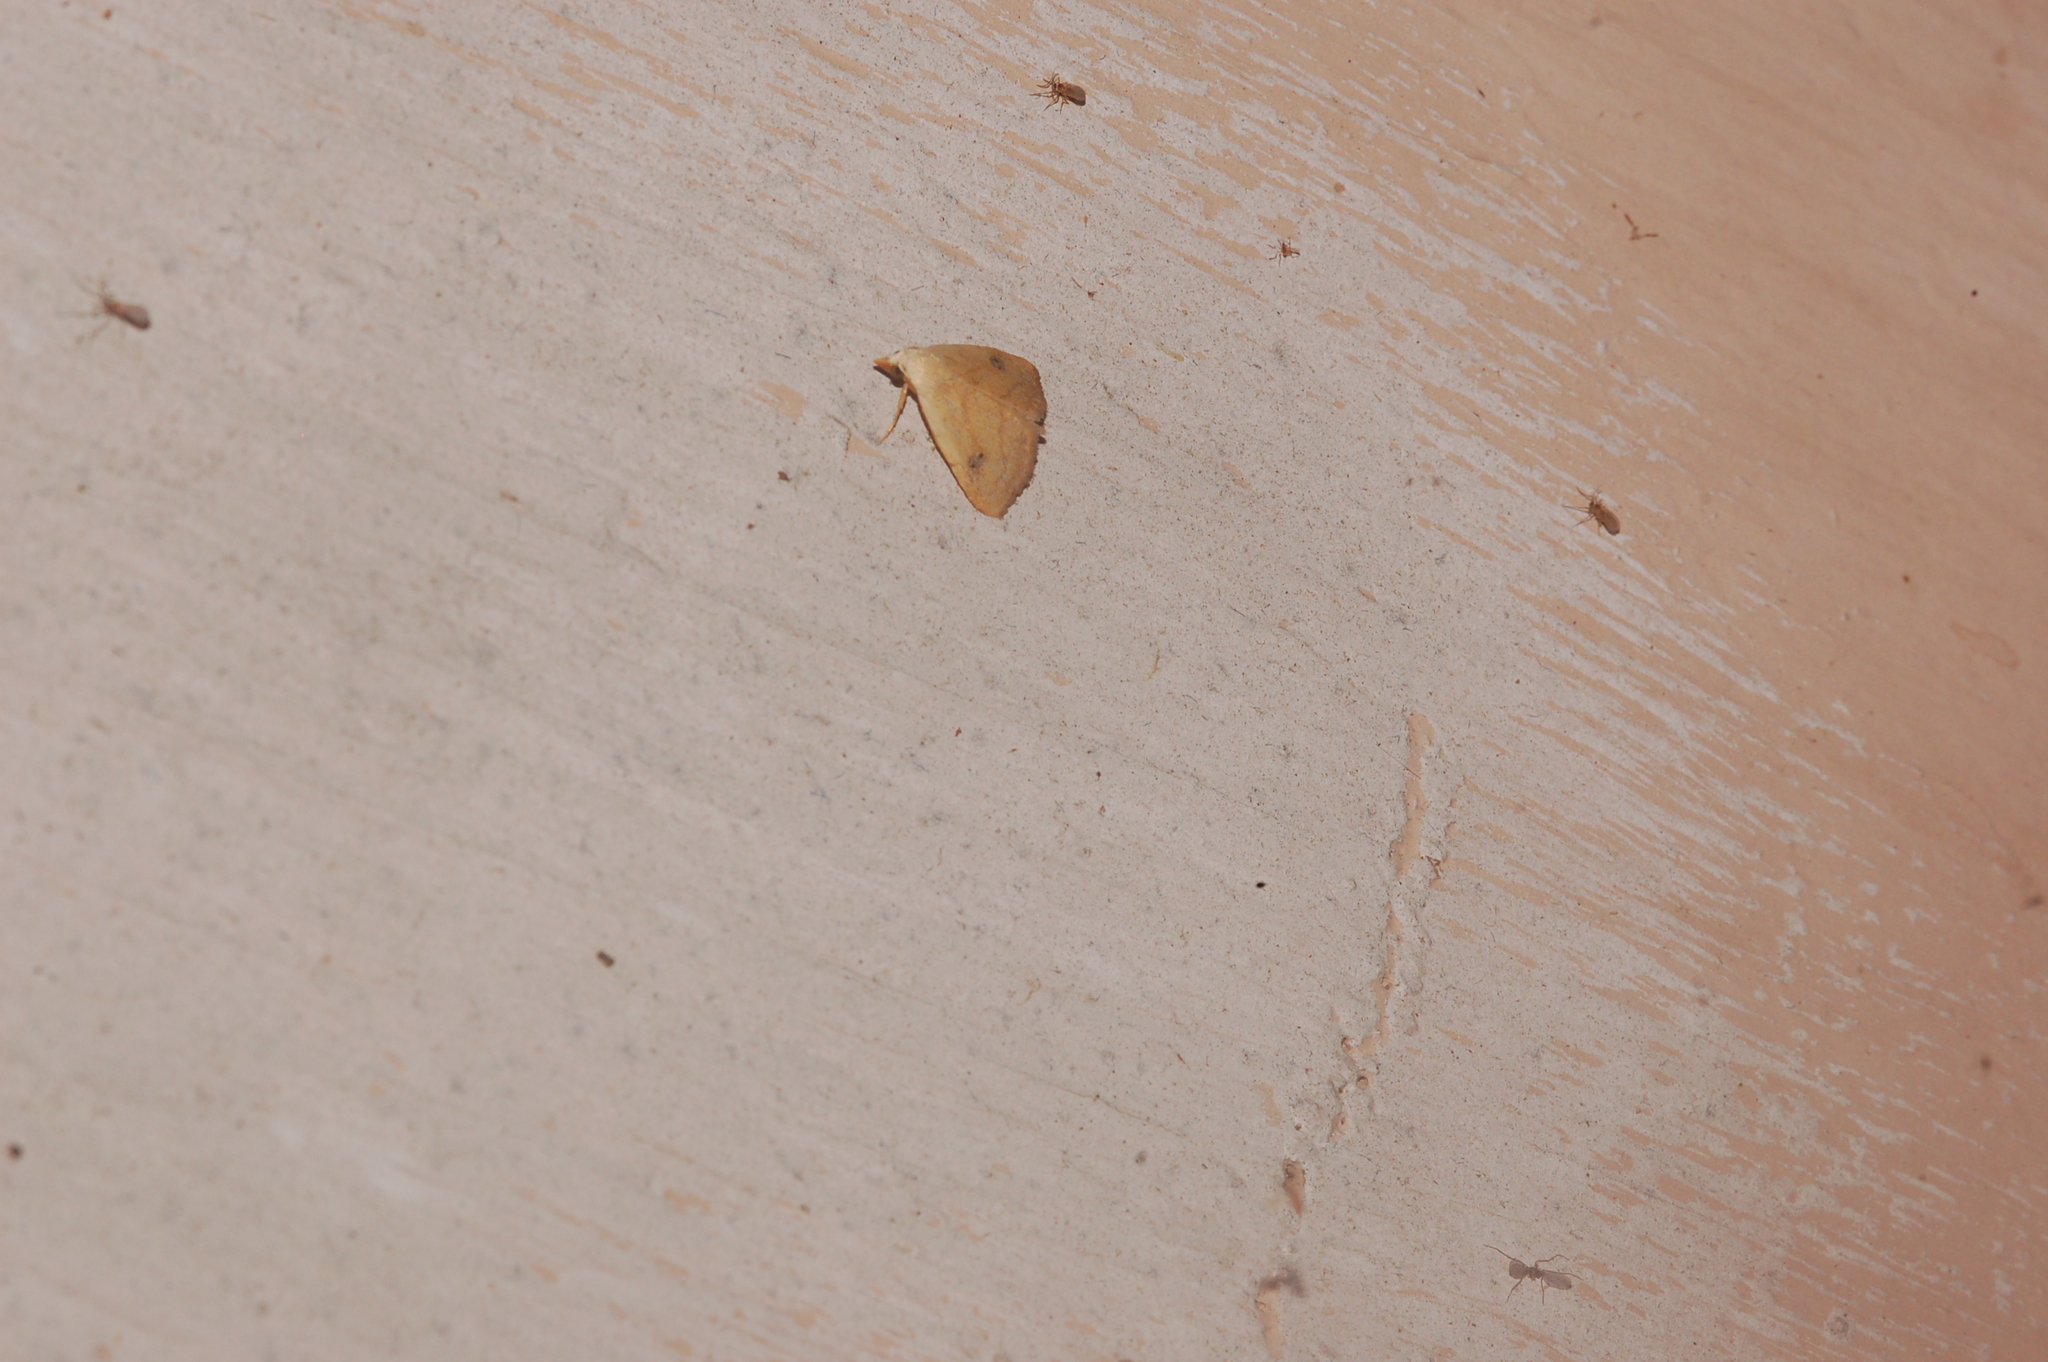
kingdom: Animalia
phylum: Arthropoda
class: Insecta
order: Lepidoptera
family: Erebidae
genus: Rivula
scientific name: Rivula propinqualis
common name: Spotted grass moth
